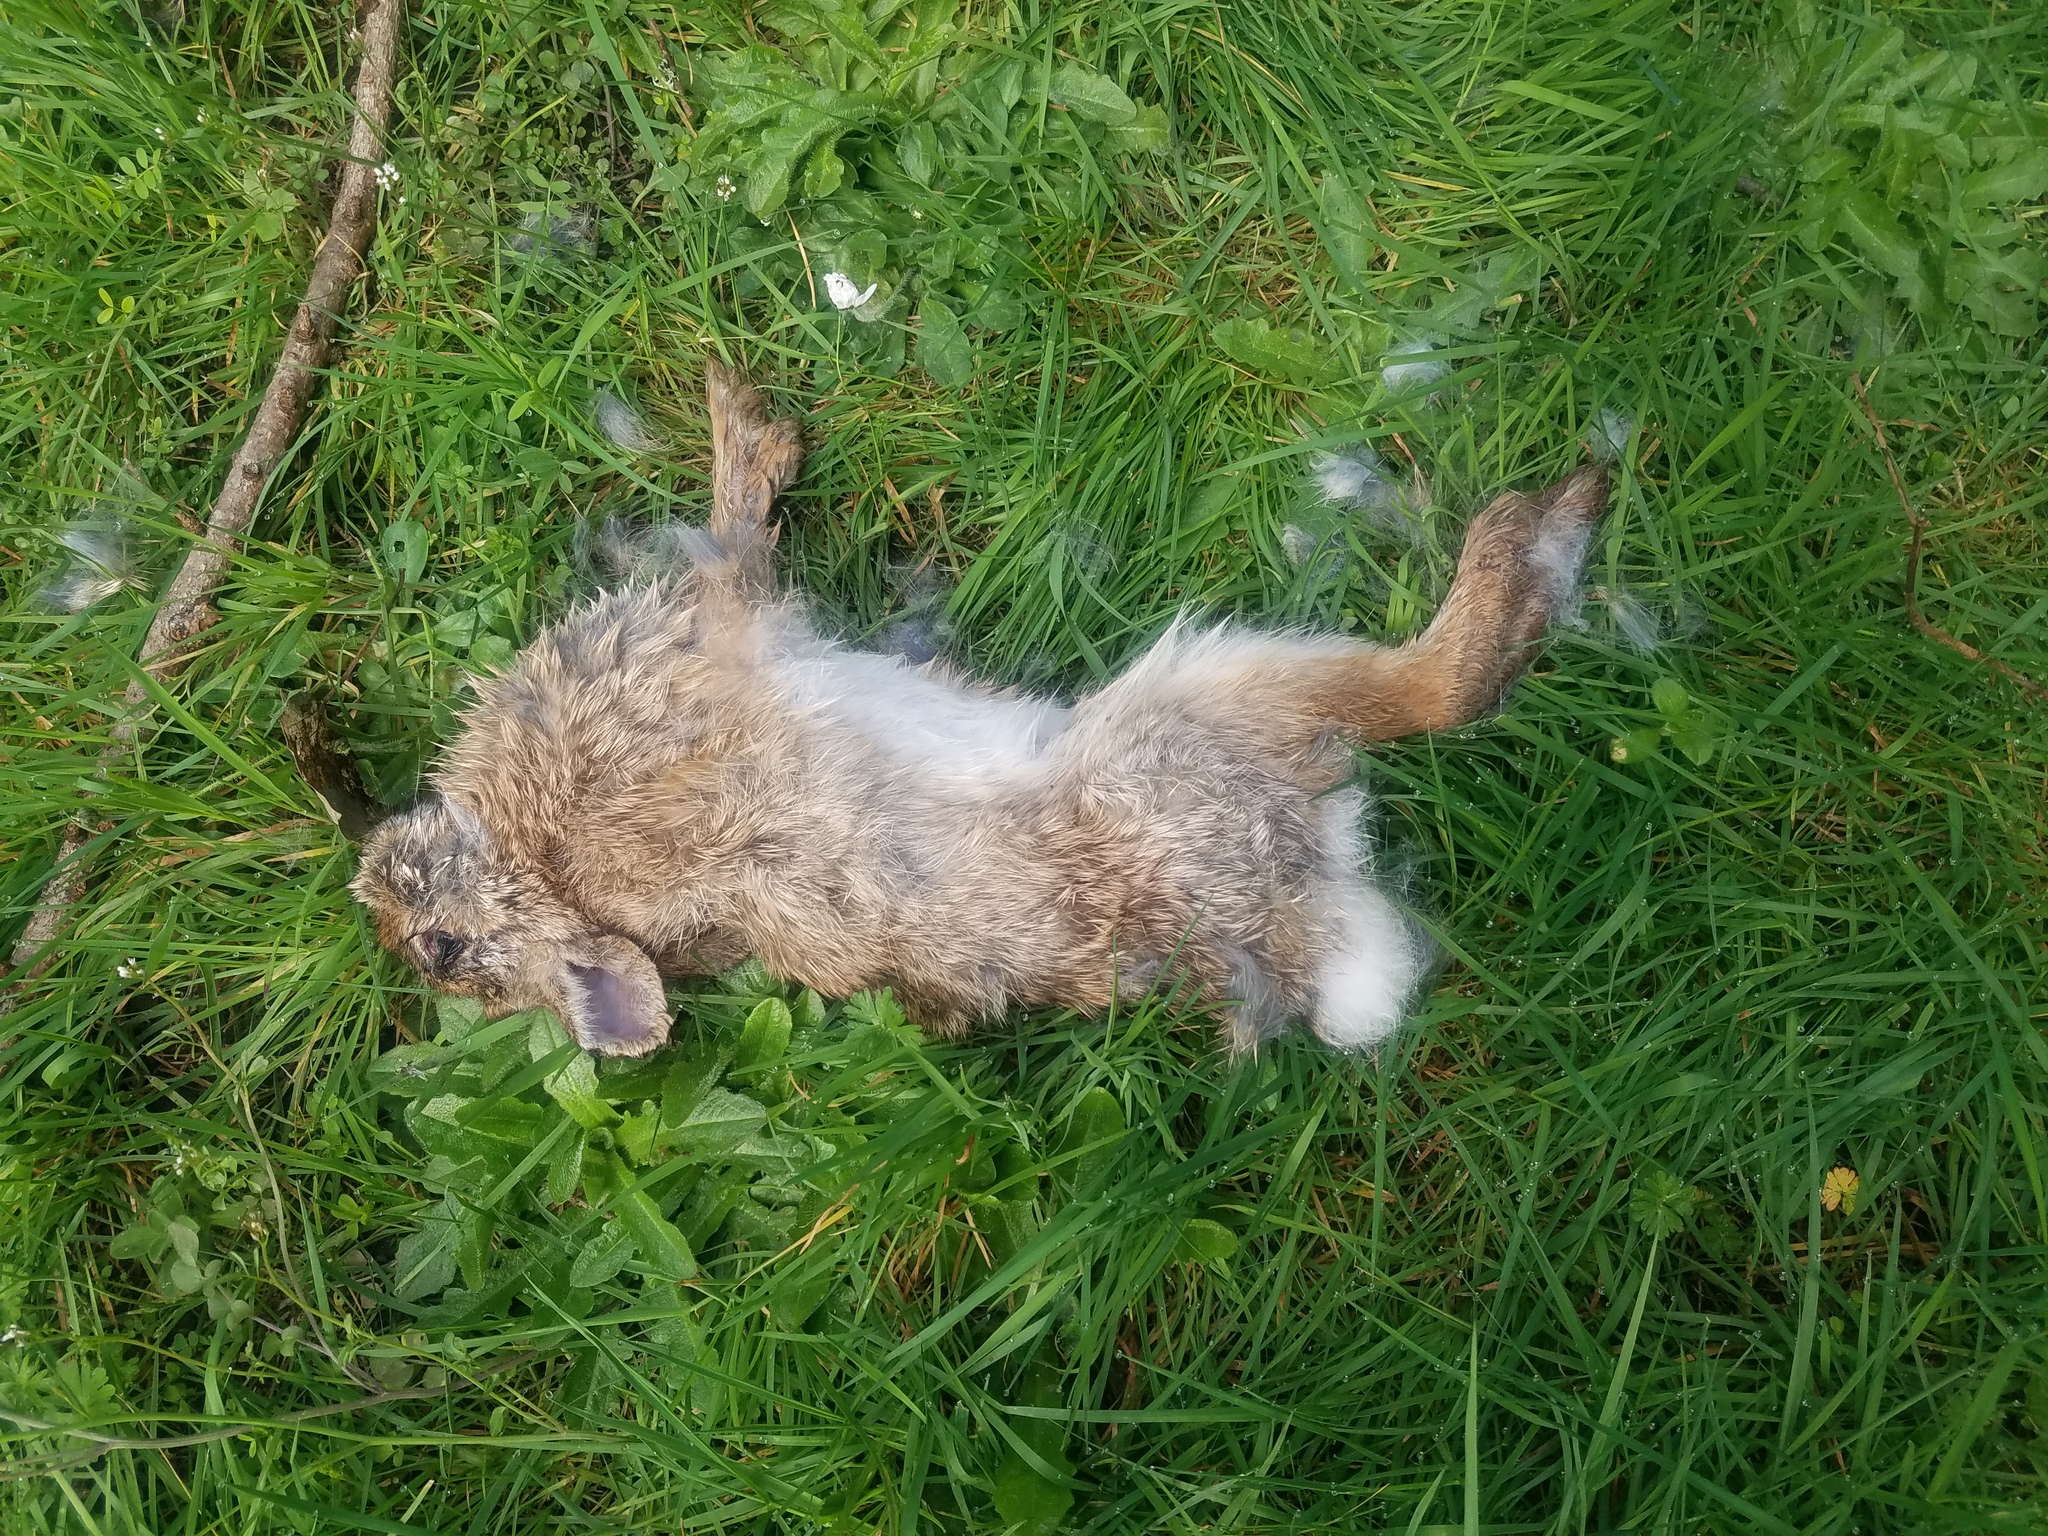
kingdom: Animalia
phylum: Chordata
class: Mammalia
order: Lagomorpha
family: Leporidae
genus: Sylvilagus
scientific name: Sylvilagus floridanus
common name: Eastern cottontail
